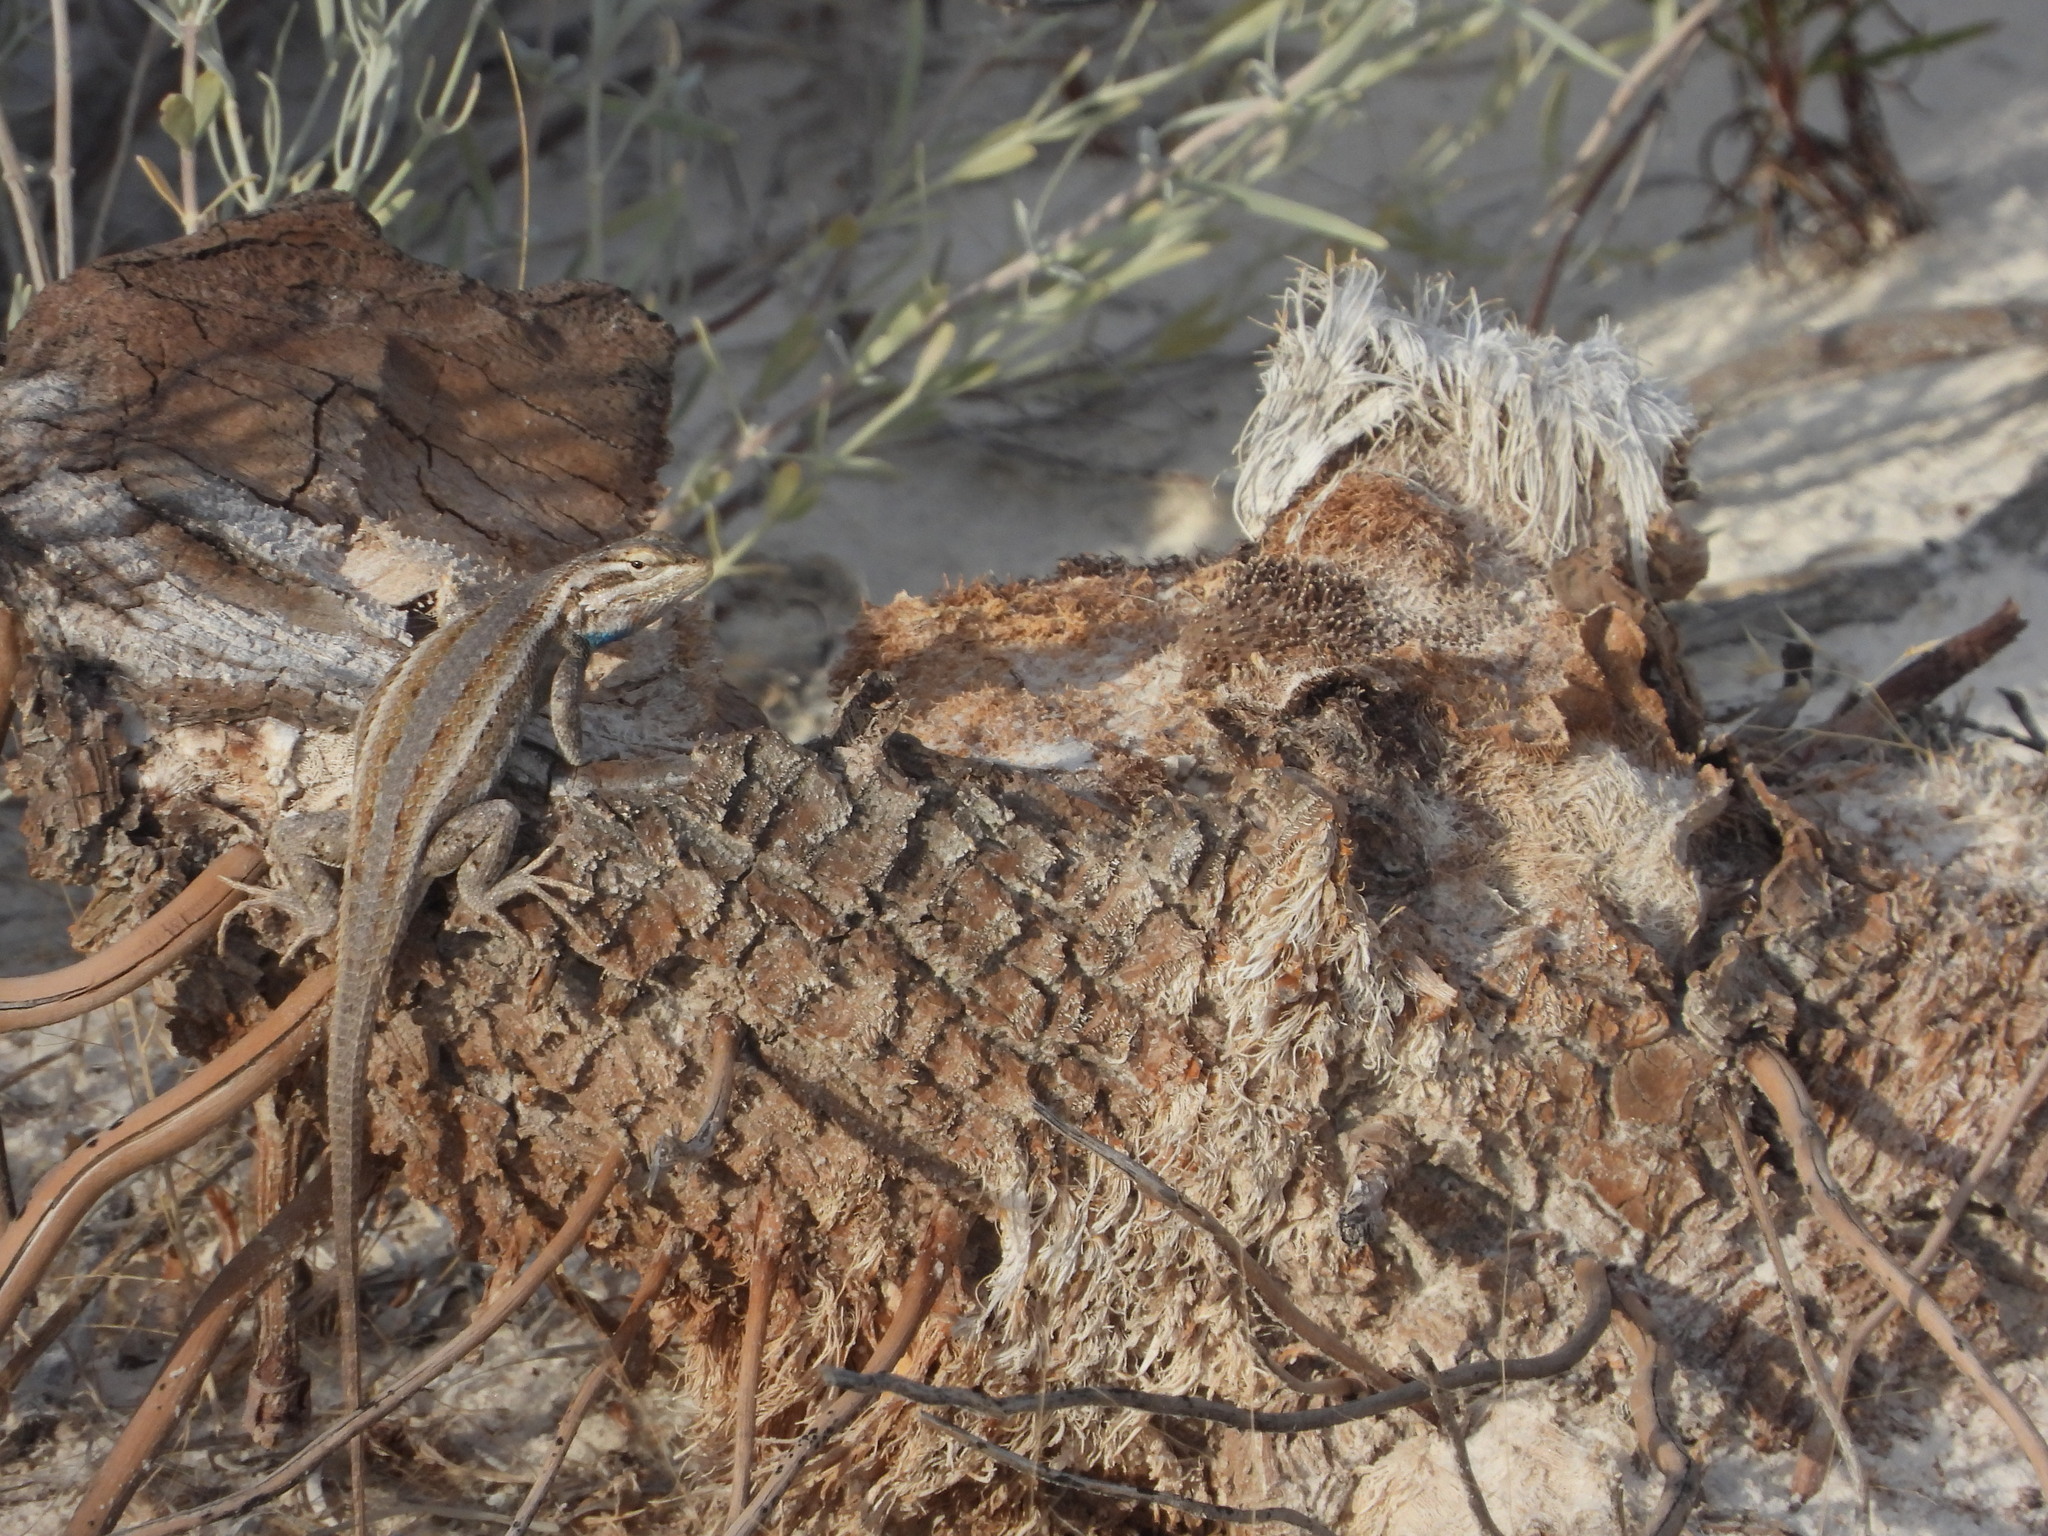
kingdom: Animalia
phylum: Chordata
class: Squamata
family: Phrynosomatidae
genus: Sceloporus
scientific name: Sceloporus cowlesi
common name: White sands prairie lizard
